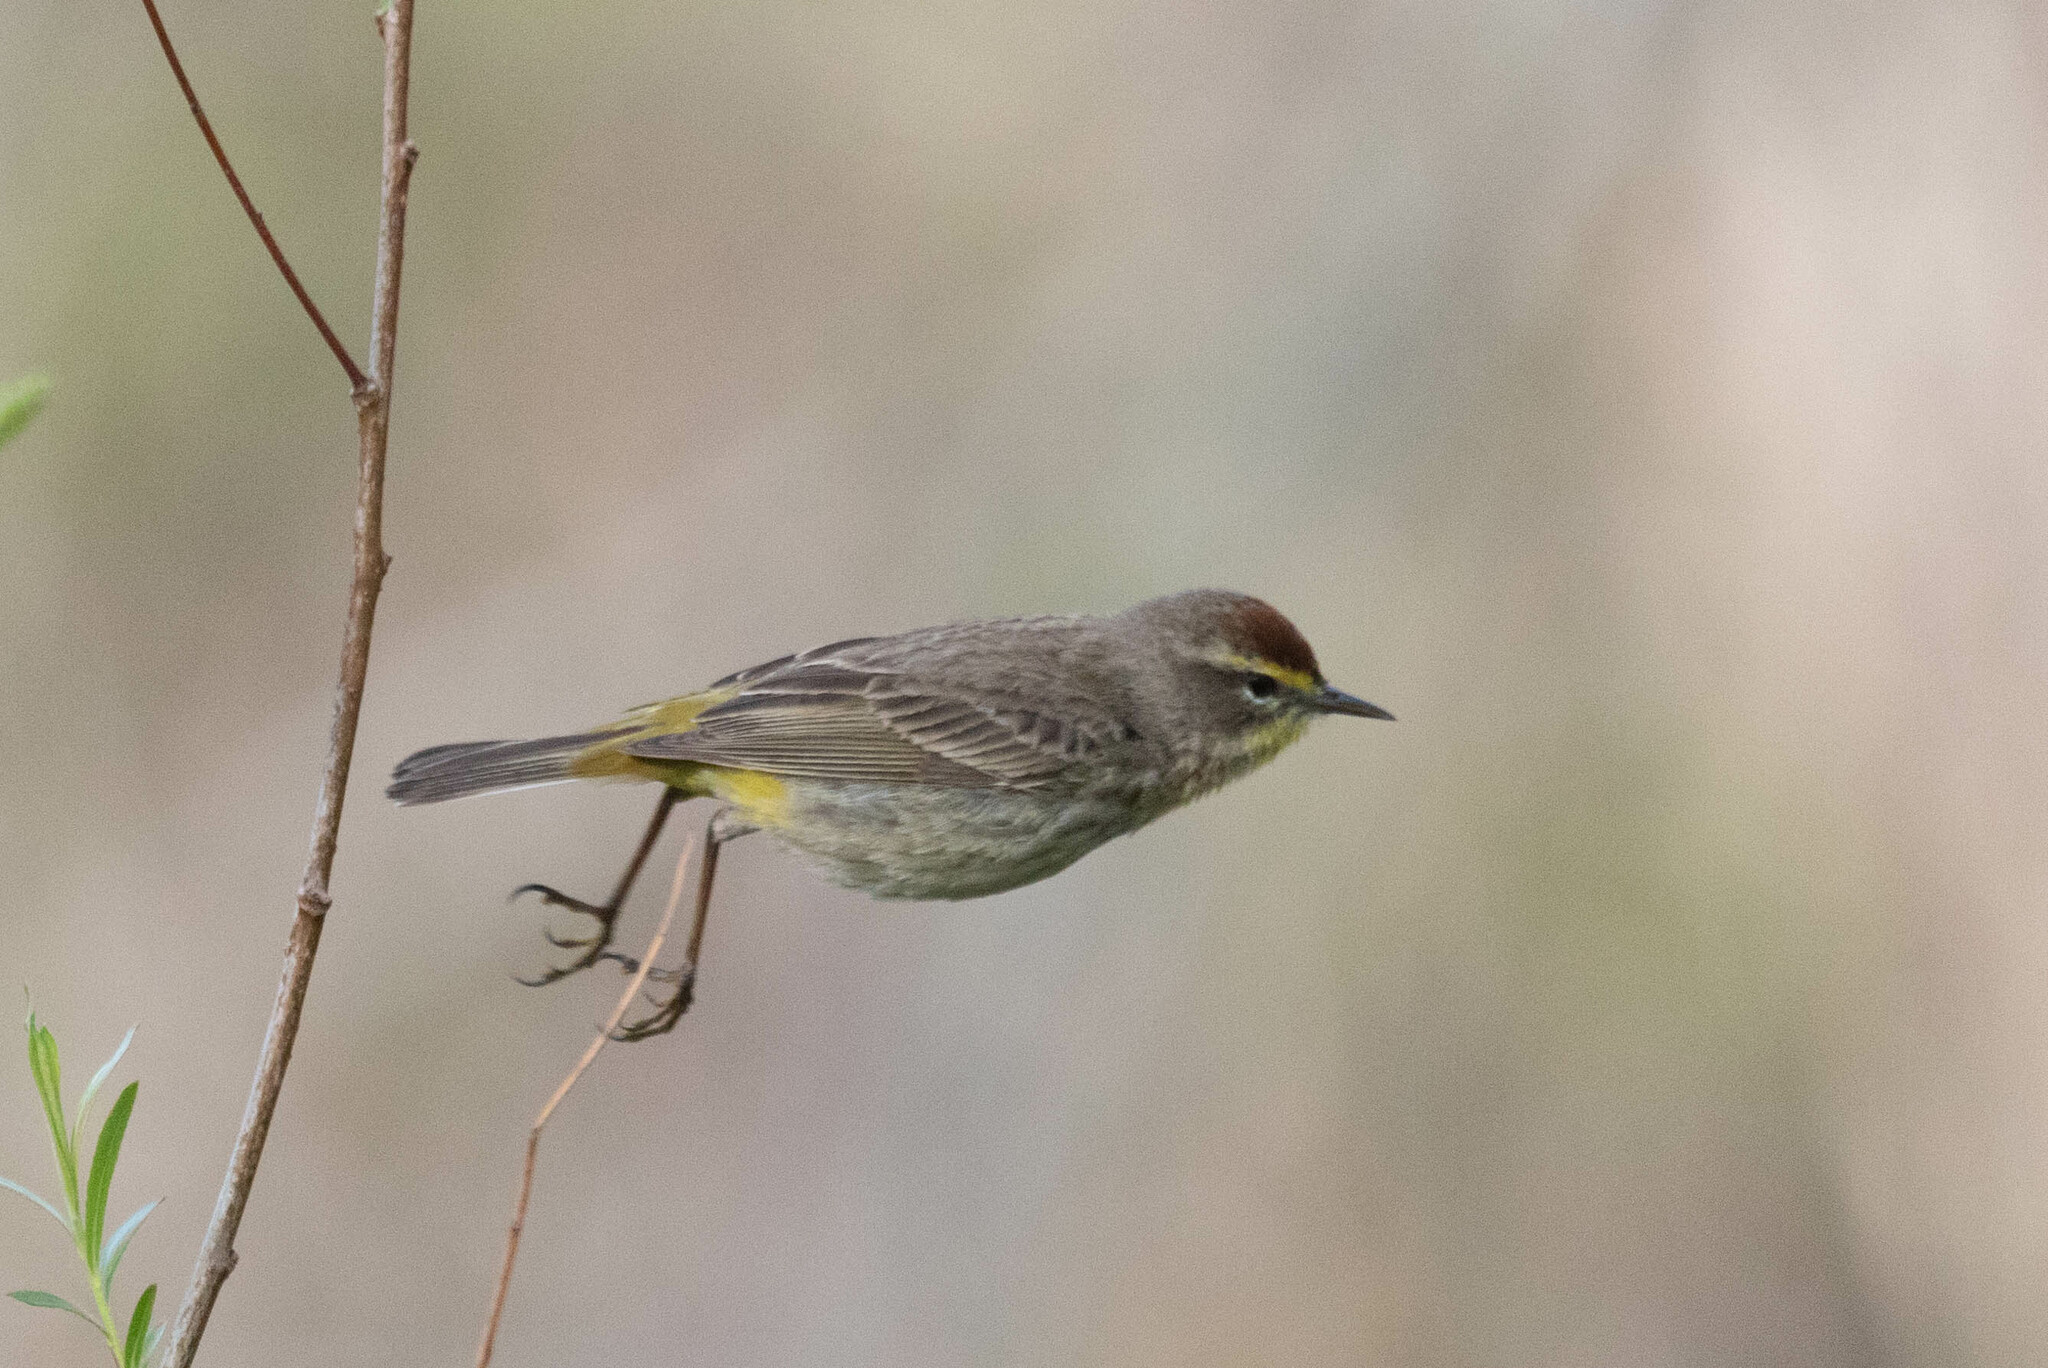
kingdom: Animalia
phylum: Chordata
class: Aves
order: Passeriformes
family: Parulidae
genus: Setophaga
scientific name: Setophaga palmarum
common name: Palm warbler
